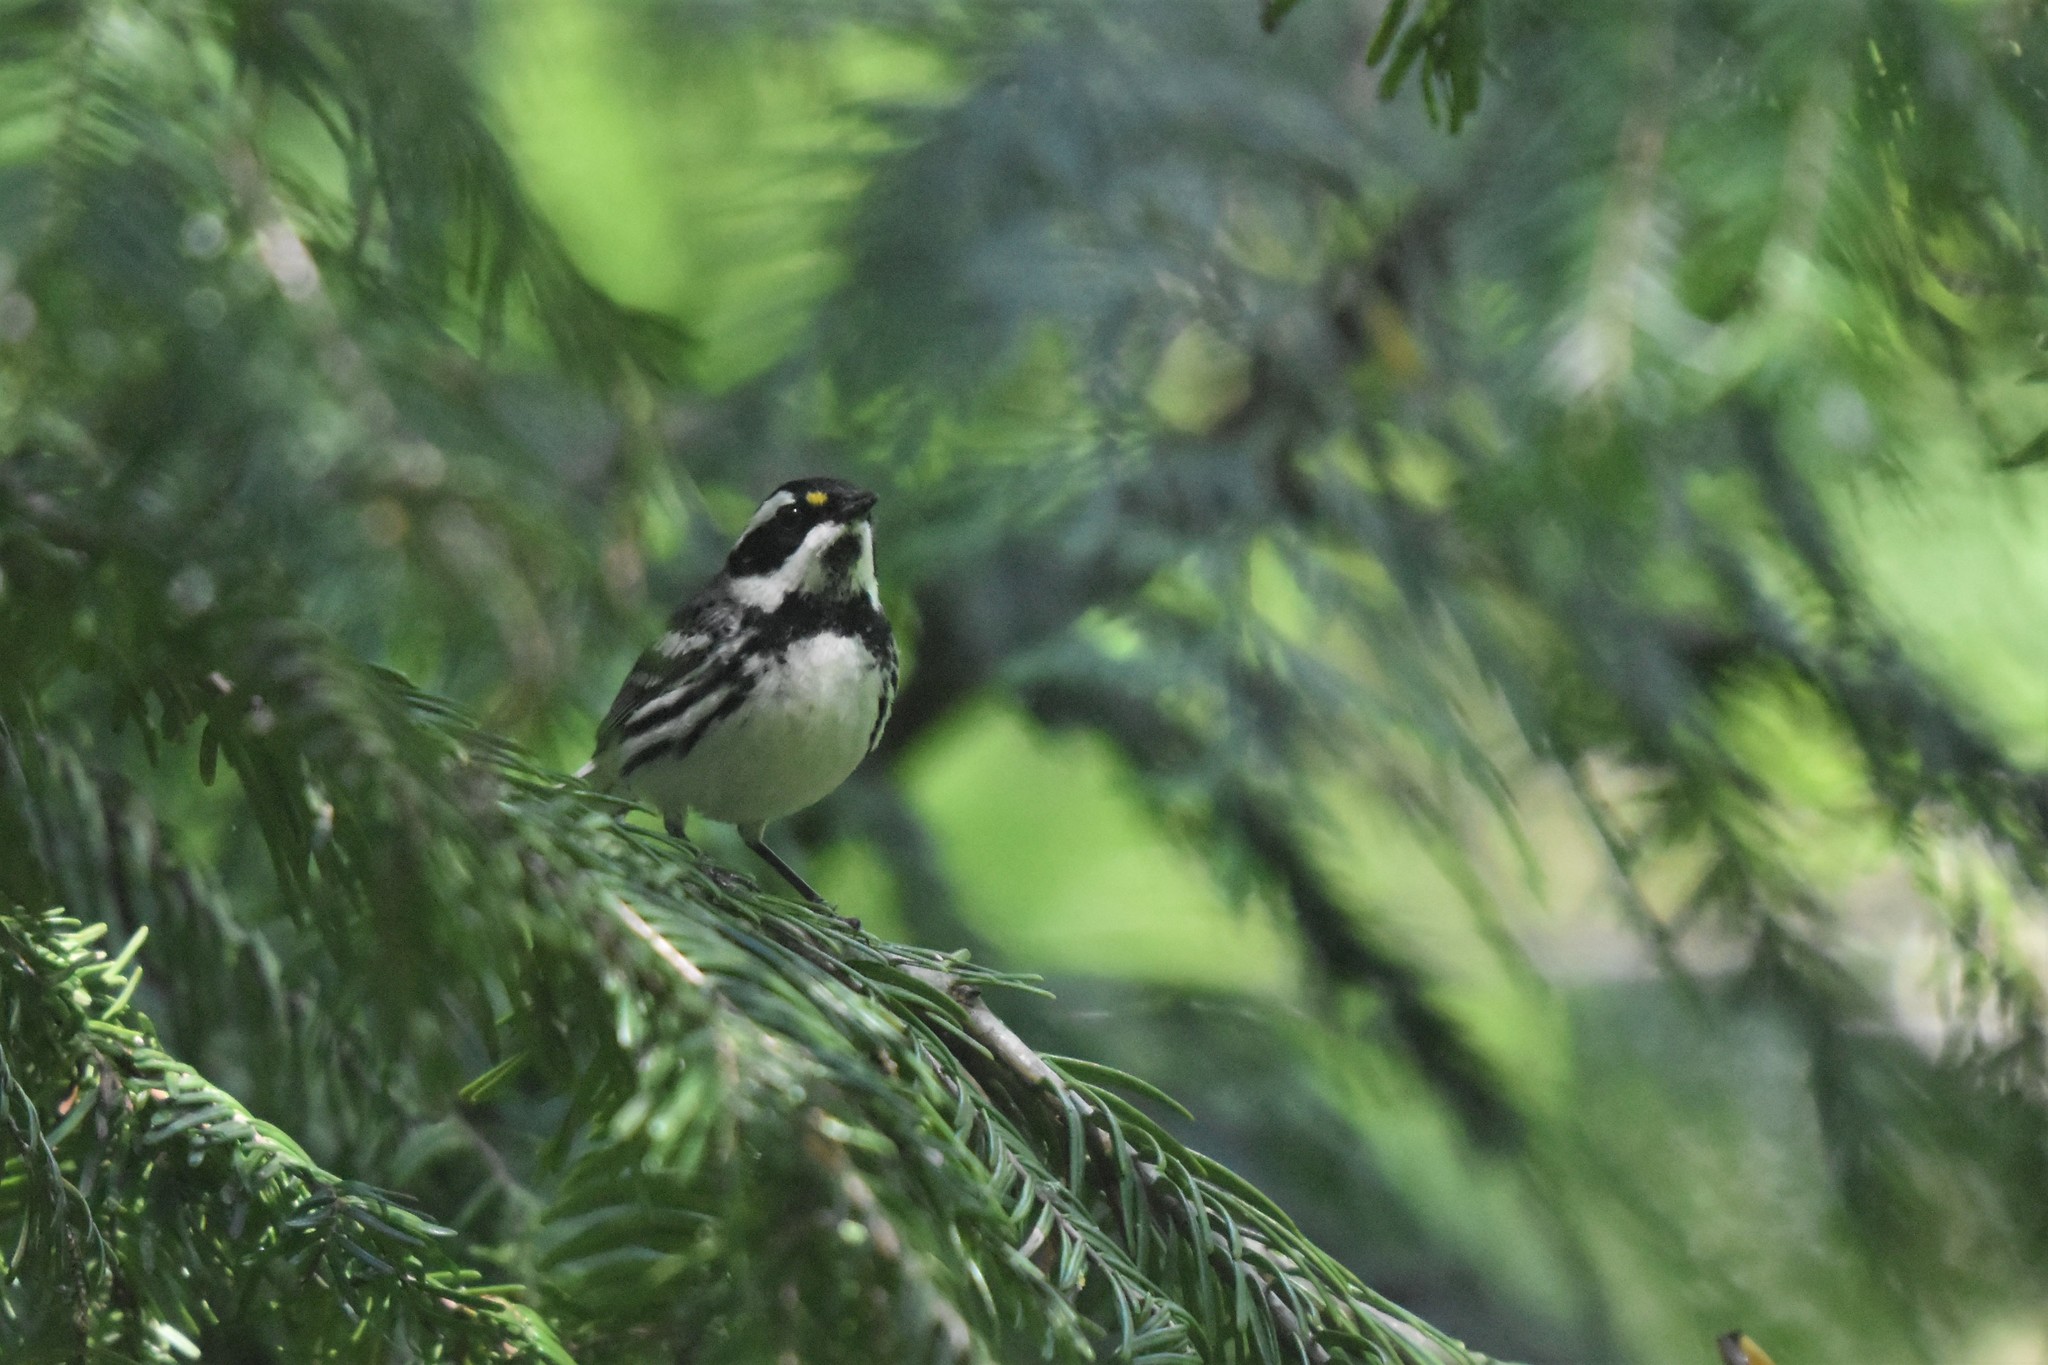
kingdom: Animalia
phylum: Chordata
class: Aves
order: Passeriformes
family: Parulidae
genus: Setophaga
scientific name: Setophaga nigrescens
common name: Black-throated gray warbler
